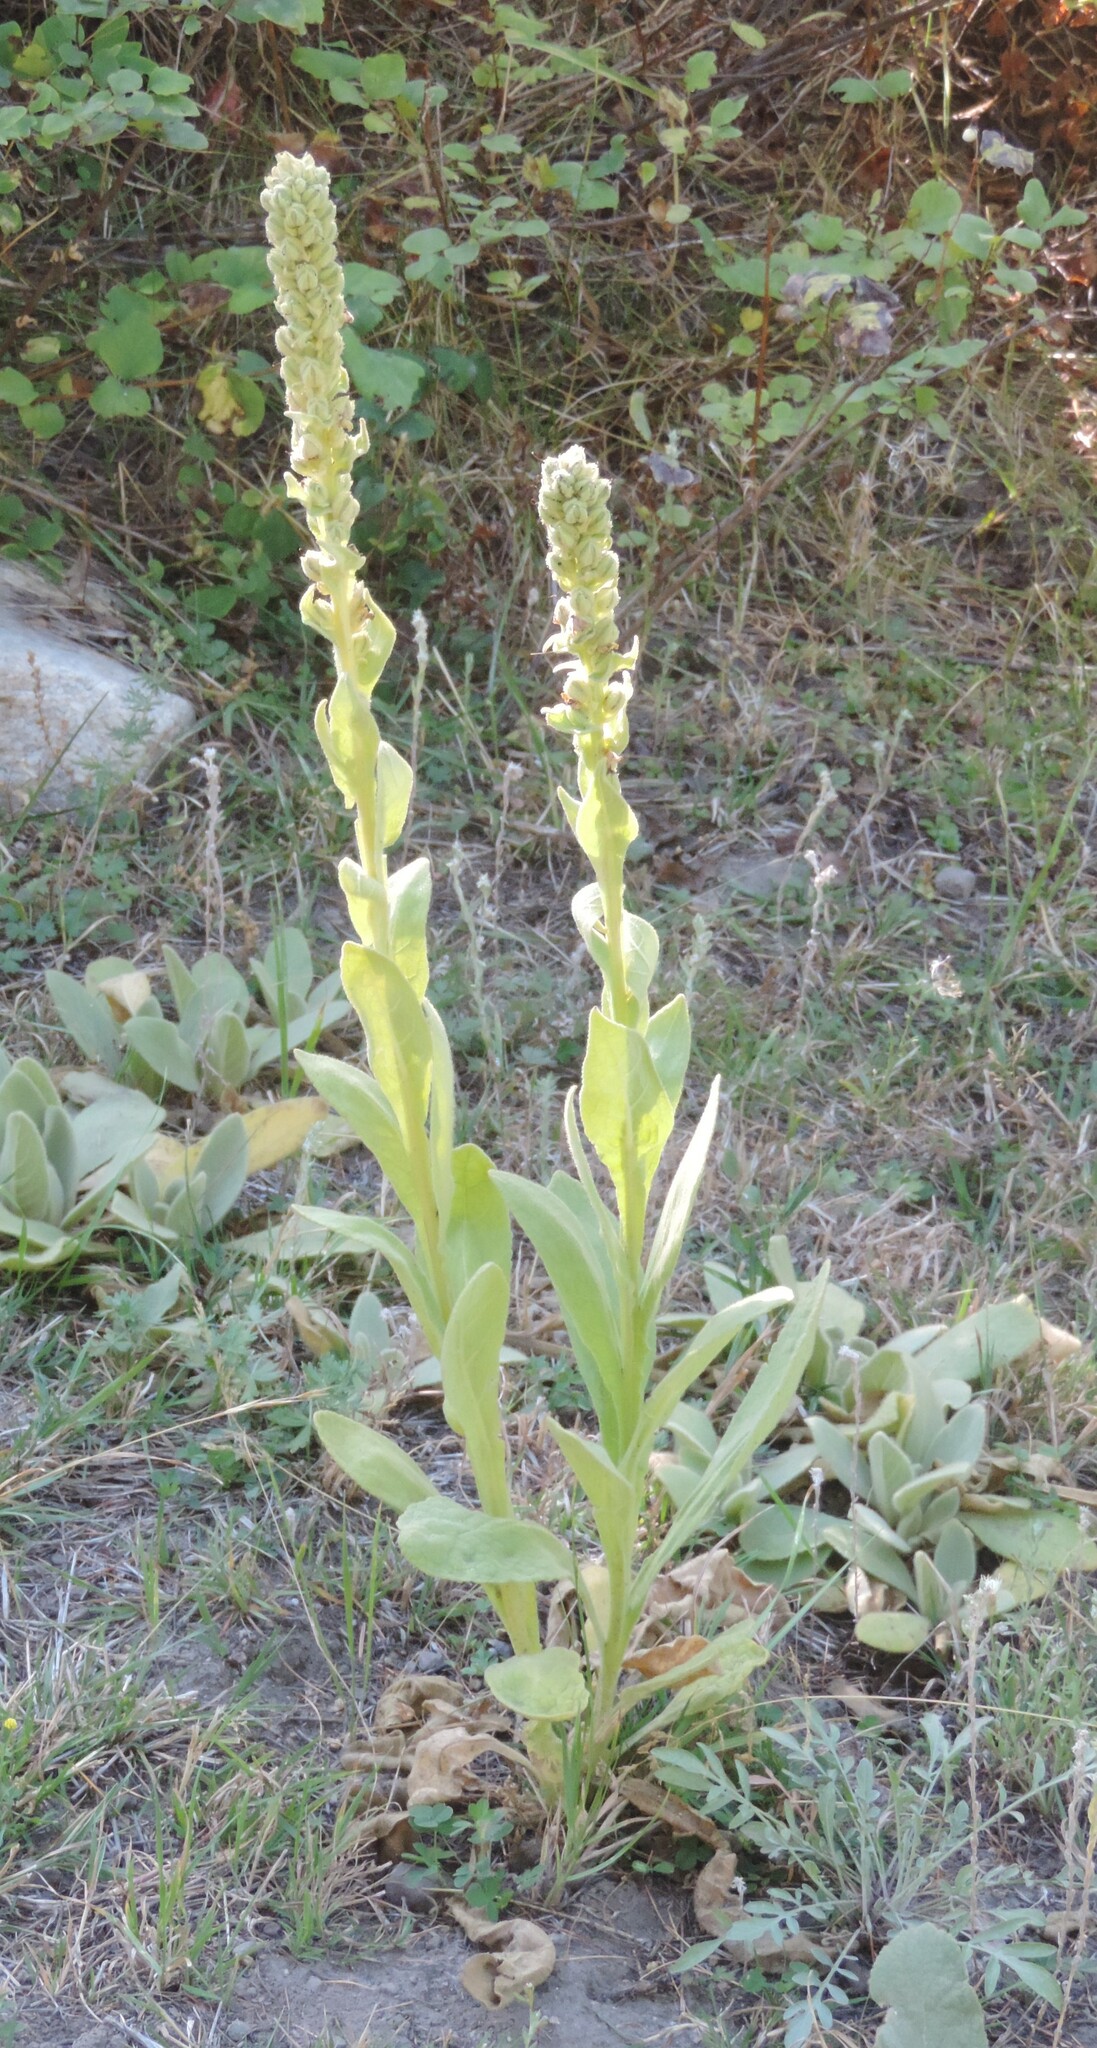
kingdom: Plantae
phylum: Tracheophyta
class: Magnoliopsida
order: Lamiales
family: Scrophulariaceae
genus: Verbascum
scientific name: Verbascum thapsus
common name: Common mullein
